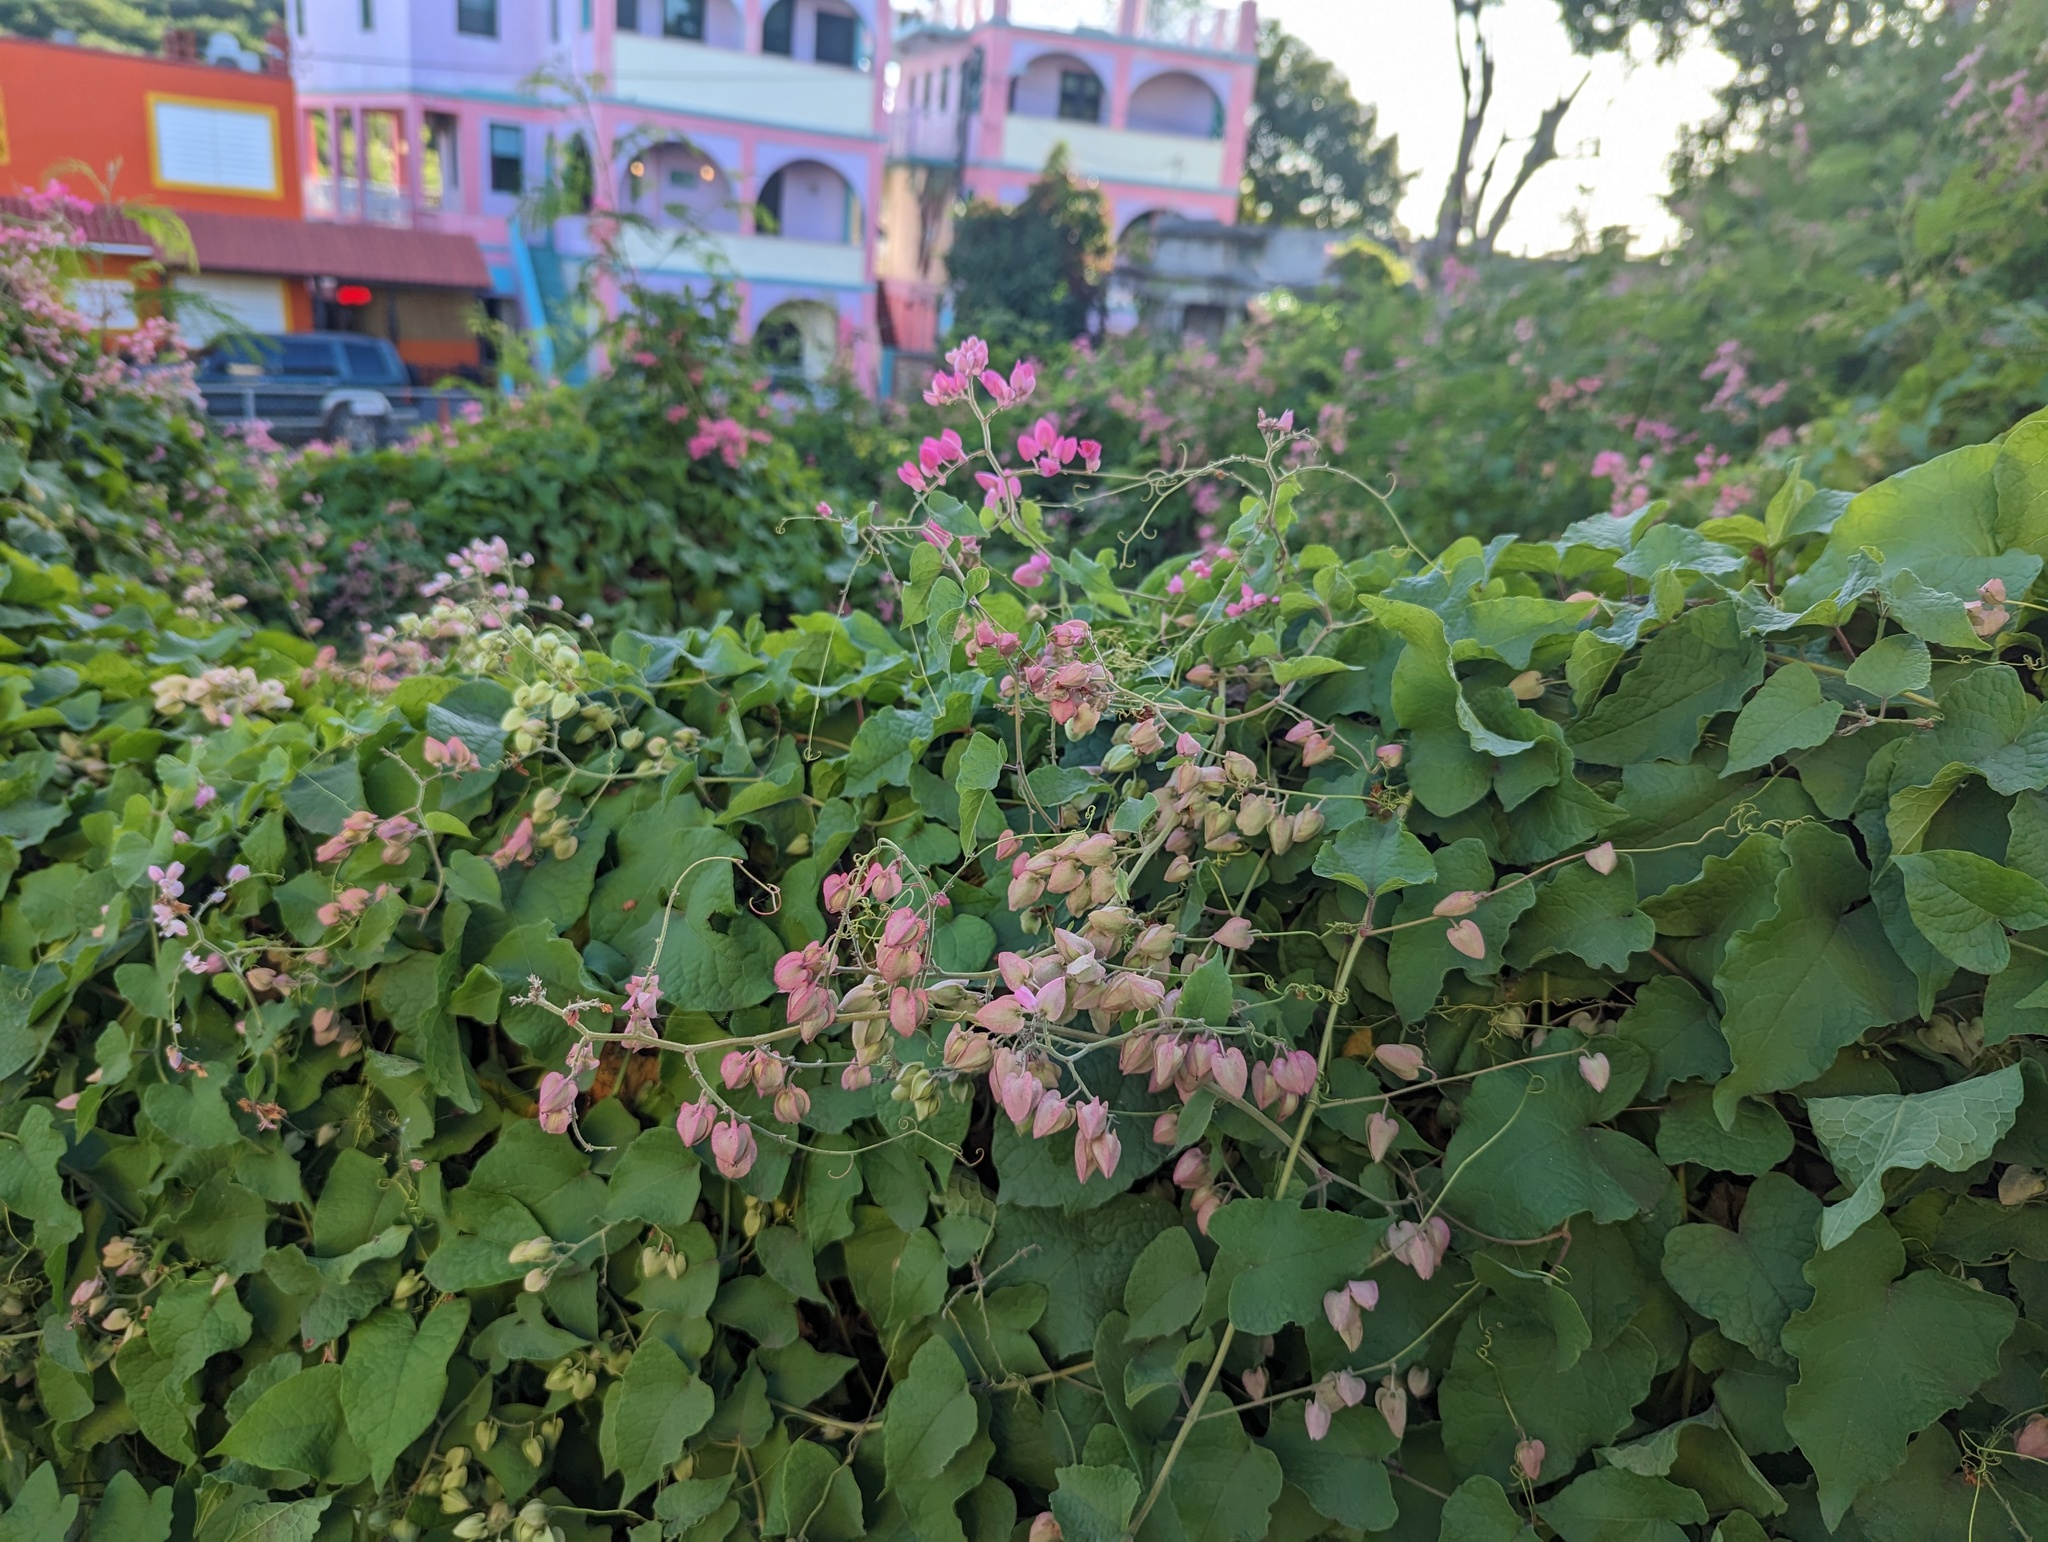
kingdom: Plantae
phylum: Tracheophyta
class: Magnoliopsida
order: Caryophyllales
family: Polygonaceae
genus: Antigonon
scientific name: Antigonon leptopus
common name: Coral vine
